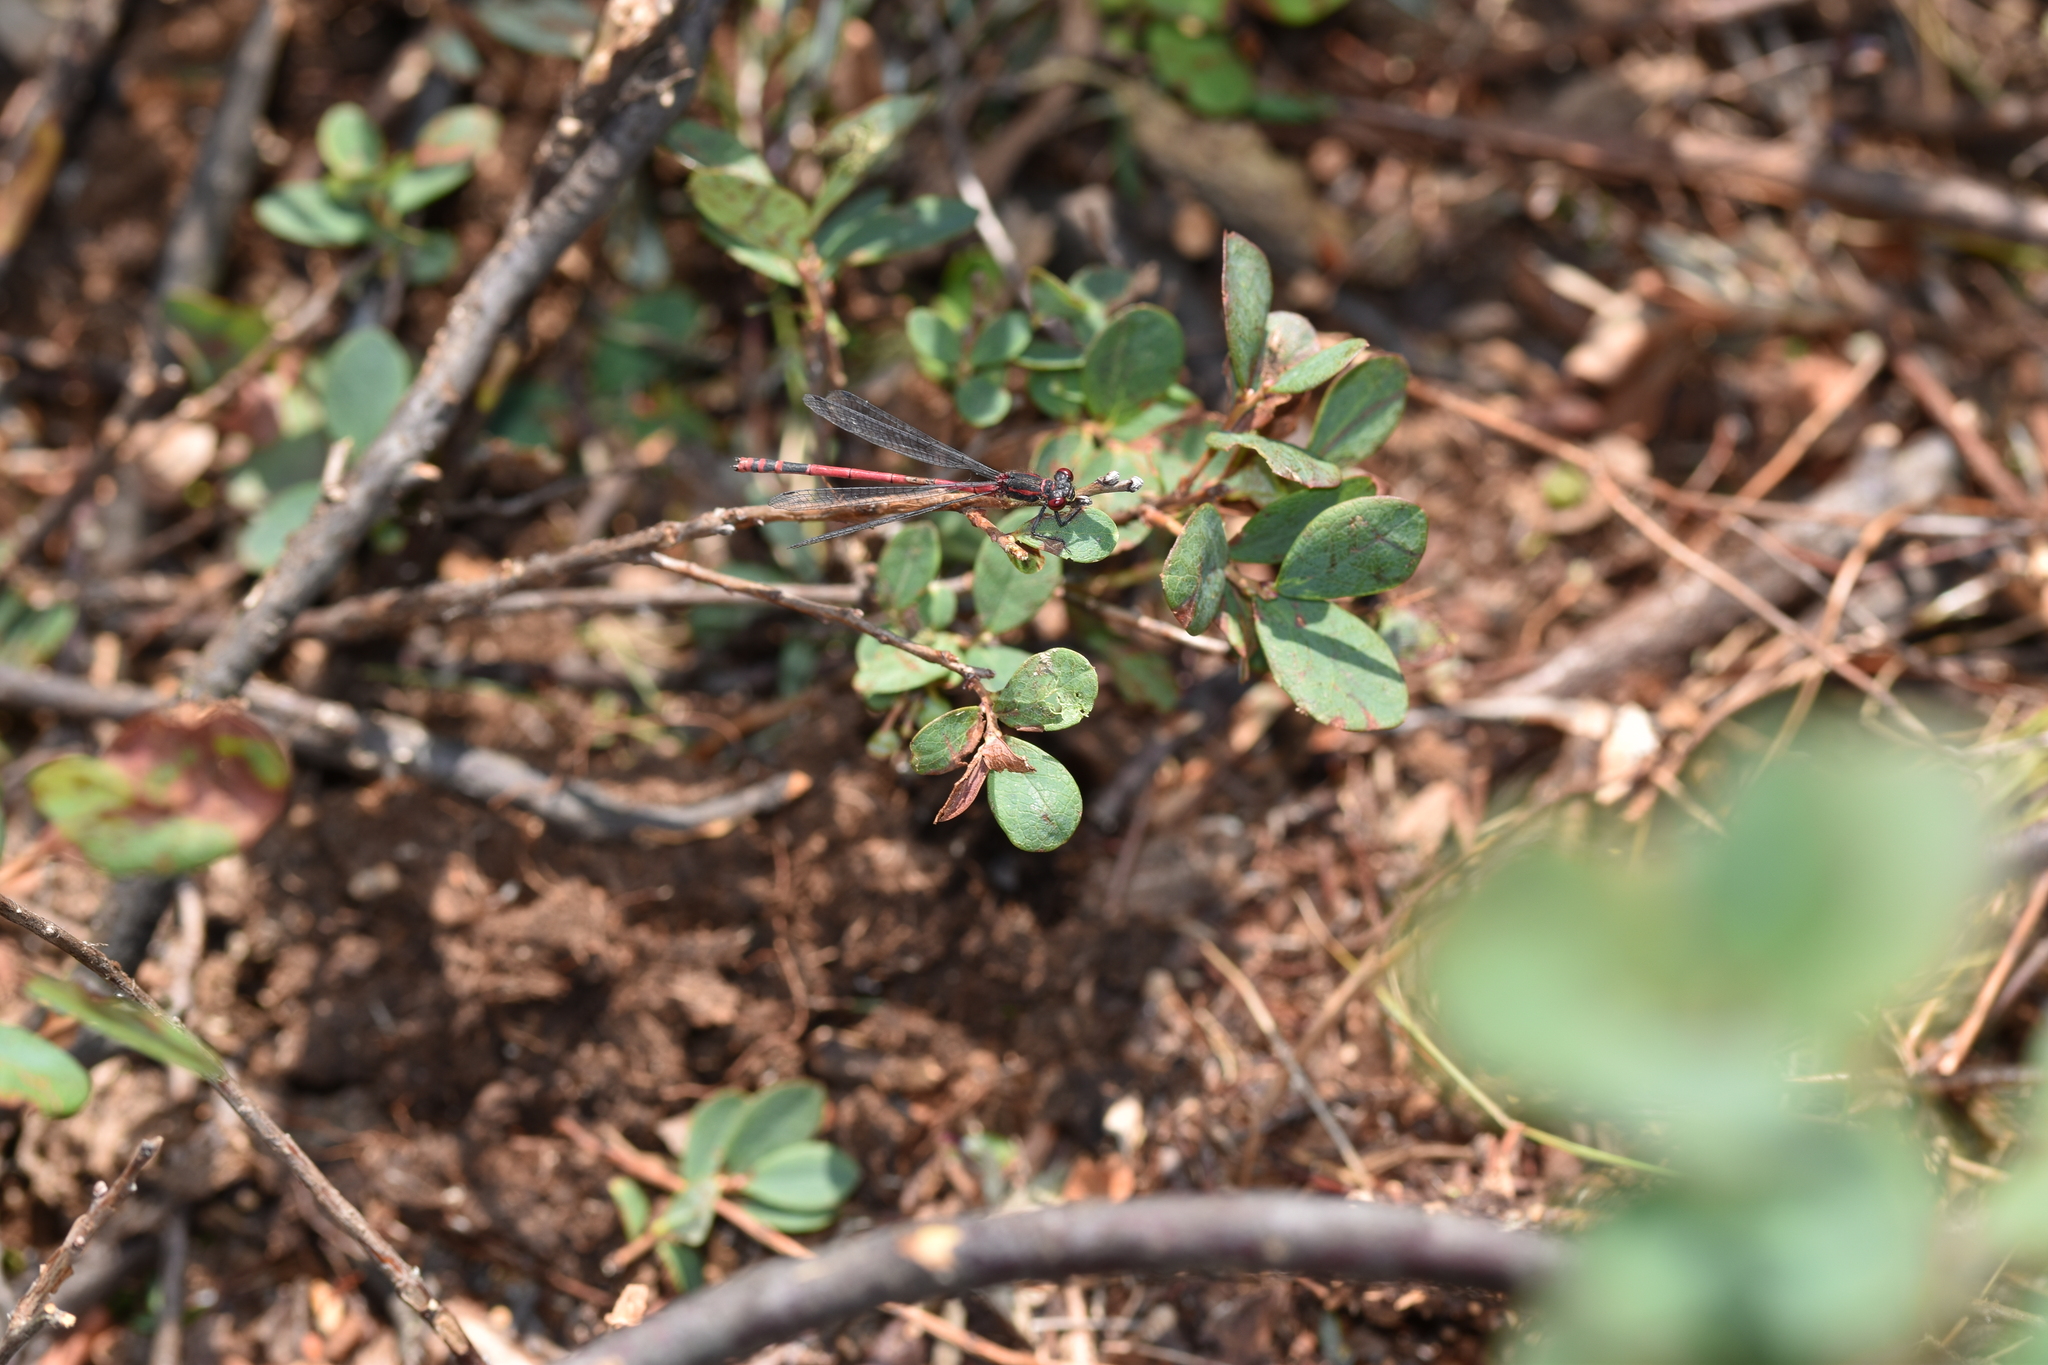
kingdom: Animalia
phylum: Arthropoda
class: Insecta
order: Odonata
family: Coenagrionidae
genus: Pyrrhosoma
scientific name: Pyrrhosoma nymphula
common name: Large red damsel
